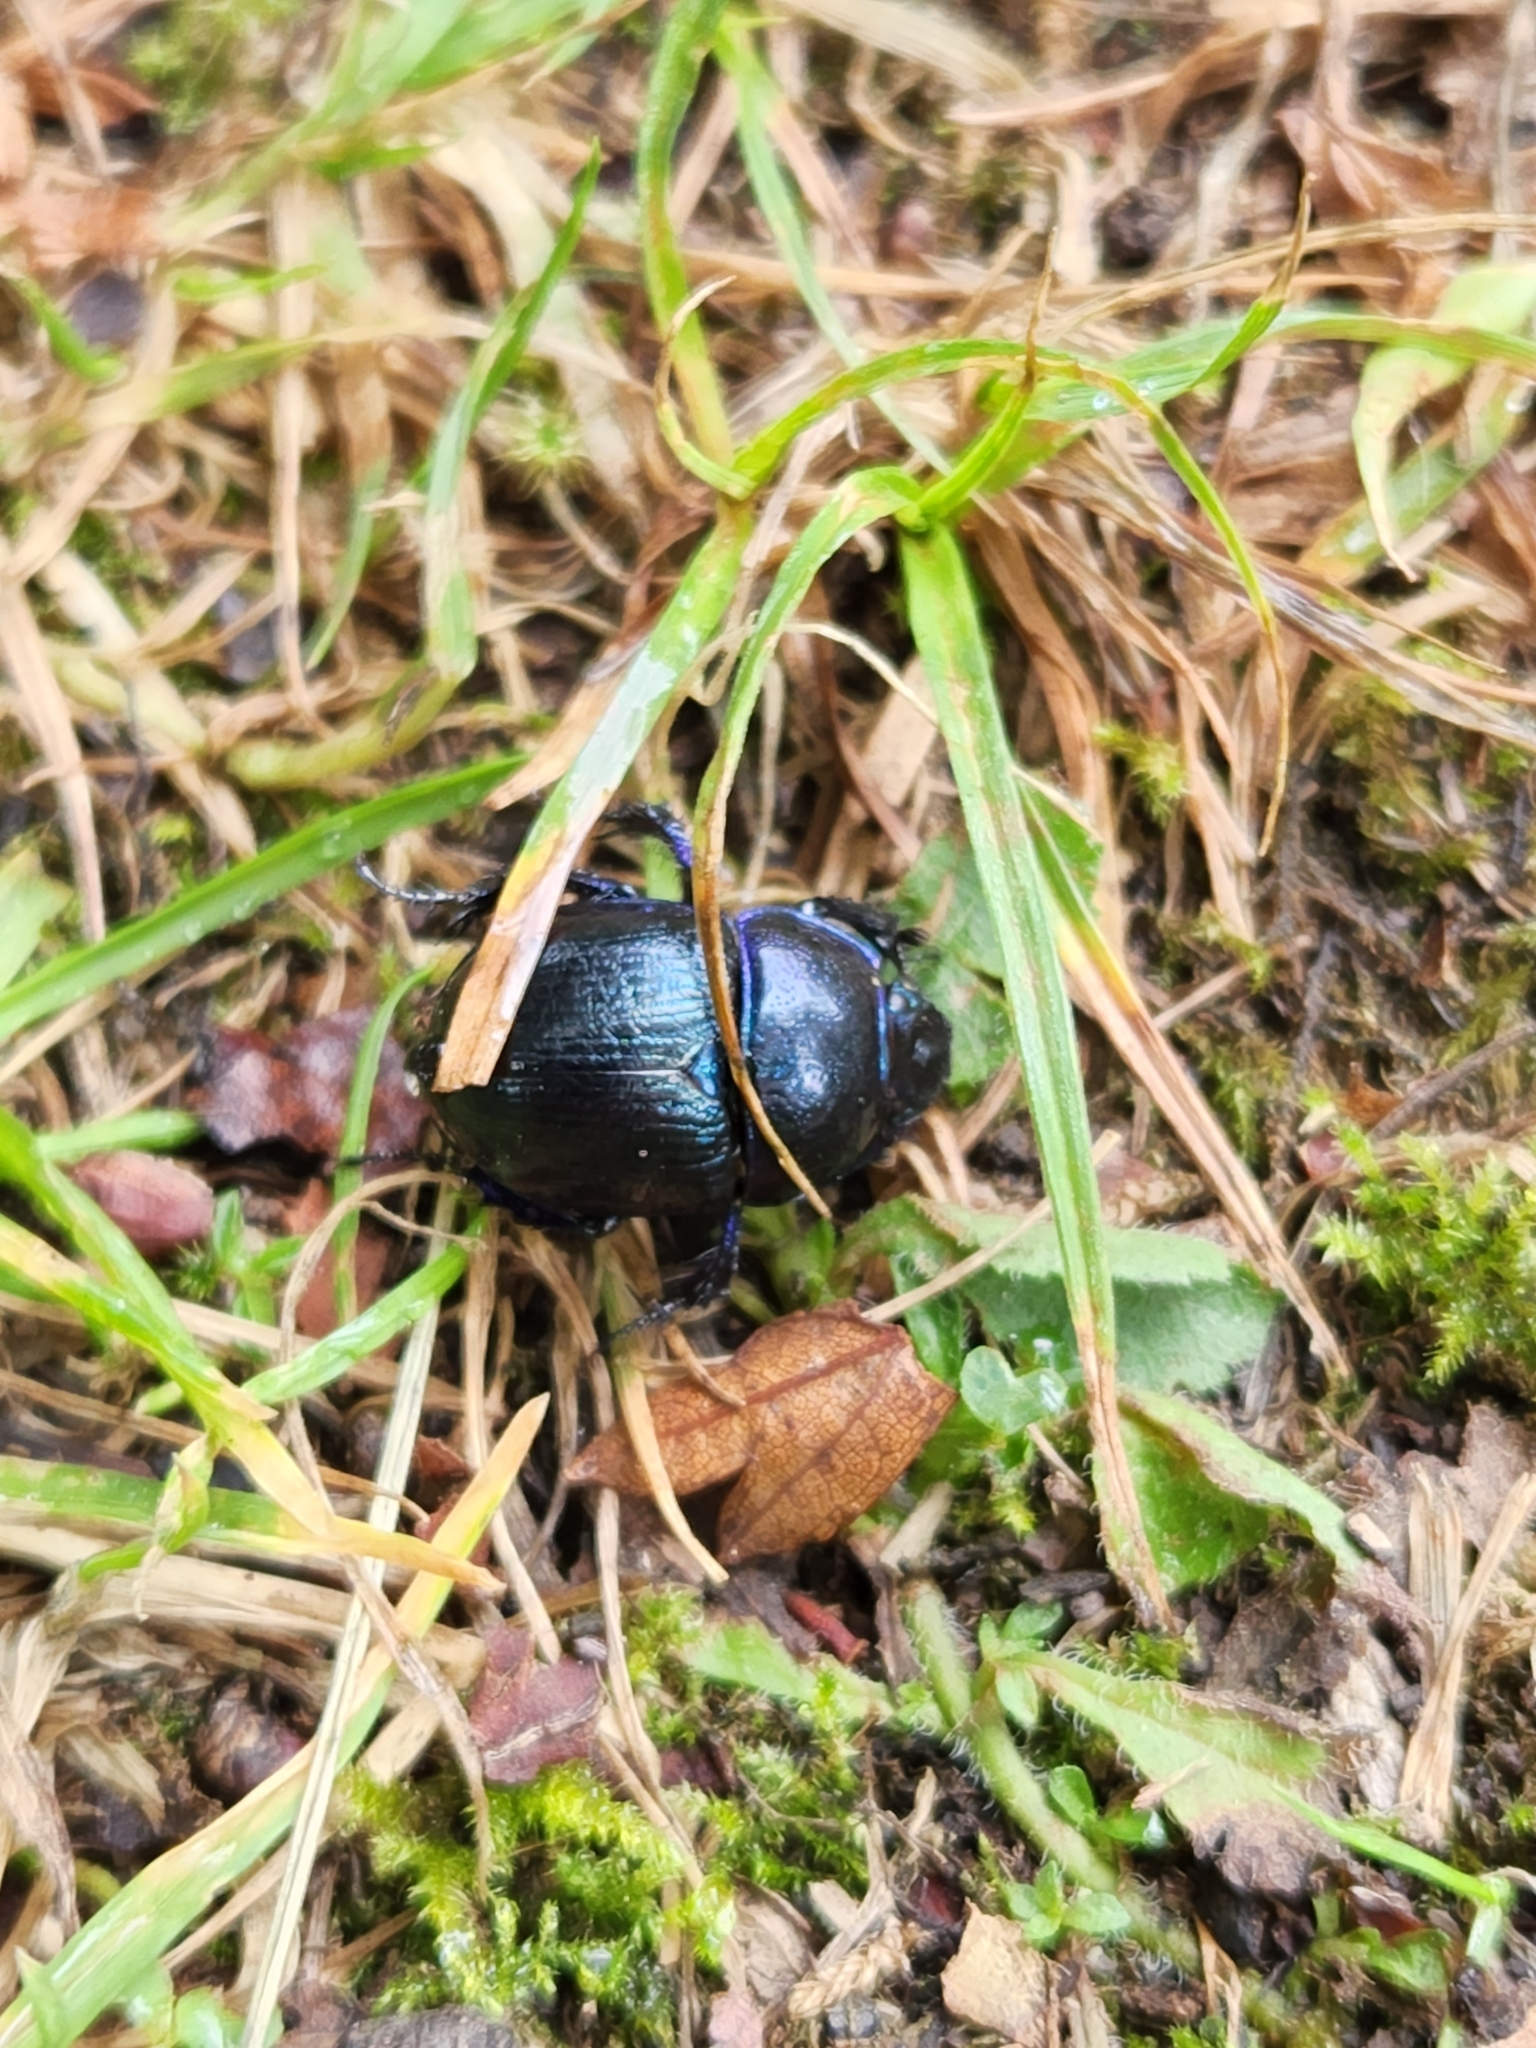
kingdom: Animalia
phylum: Arthropoda
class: Insecta
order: Coleoptera
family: Geotrupidae
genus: Anoplotrupes
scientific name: Anoplotrupes stercorosus
